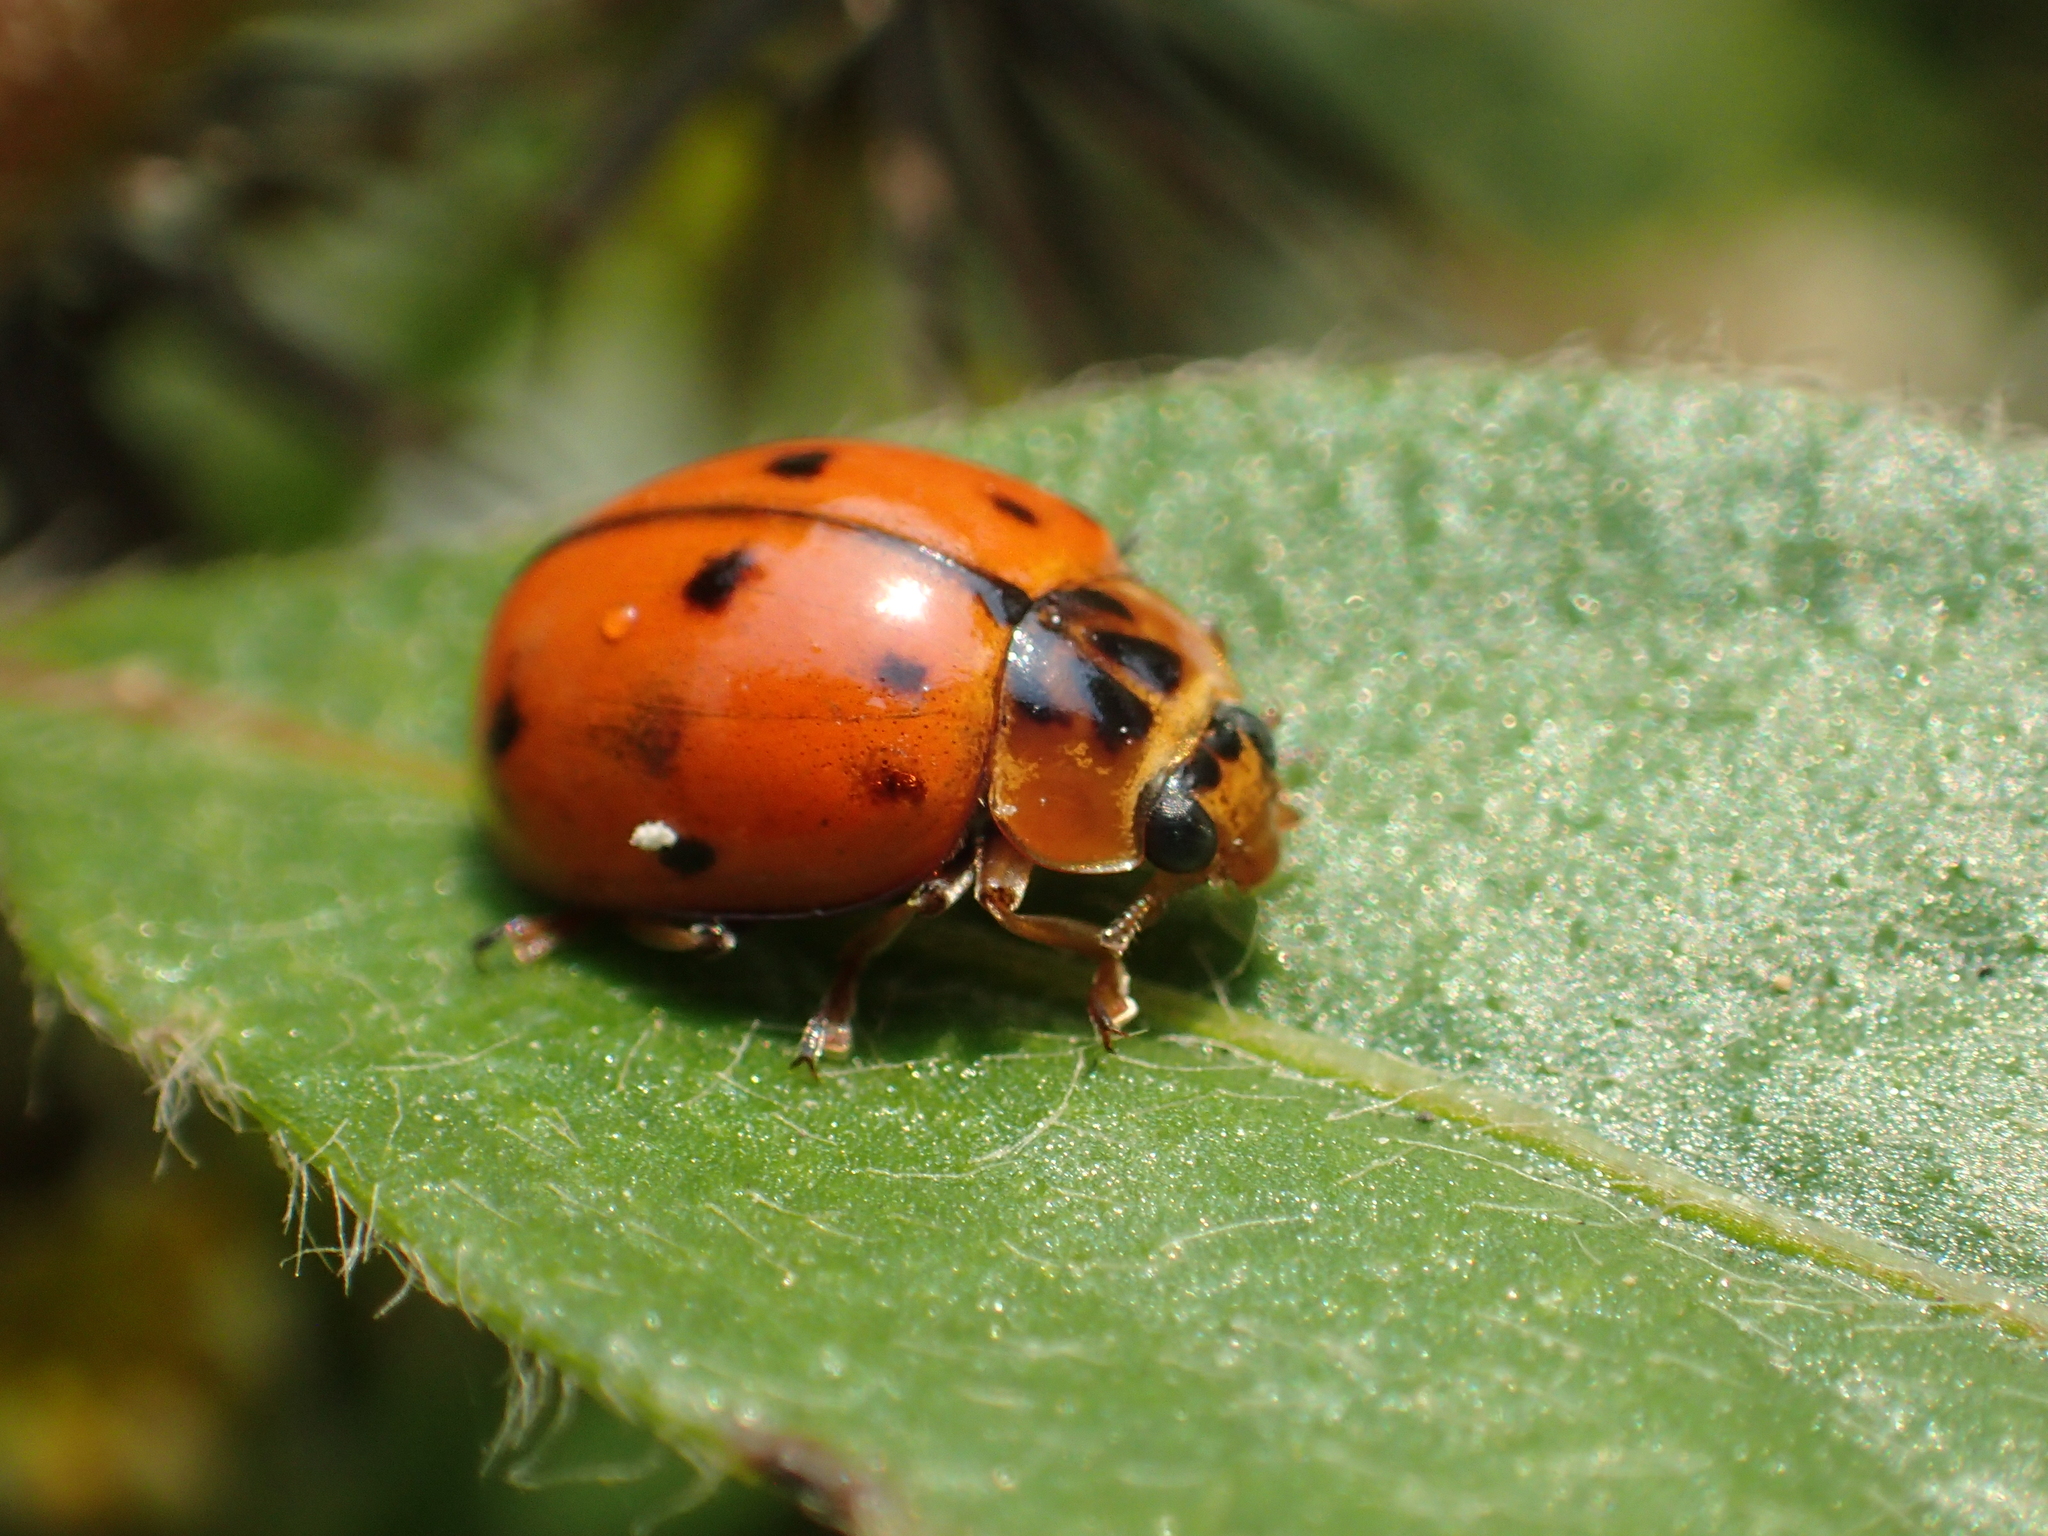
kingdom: Animalia
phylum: Arthropoda
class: Insecta
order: Coleoptera
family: Coccinellidae
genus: Harmonia
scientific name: Harmonia octomaculata
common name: Lady beetle
